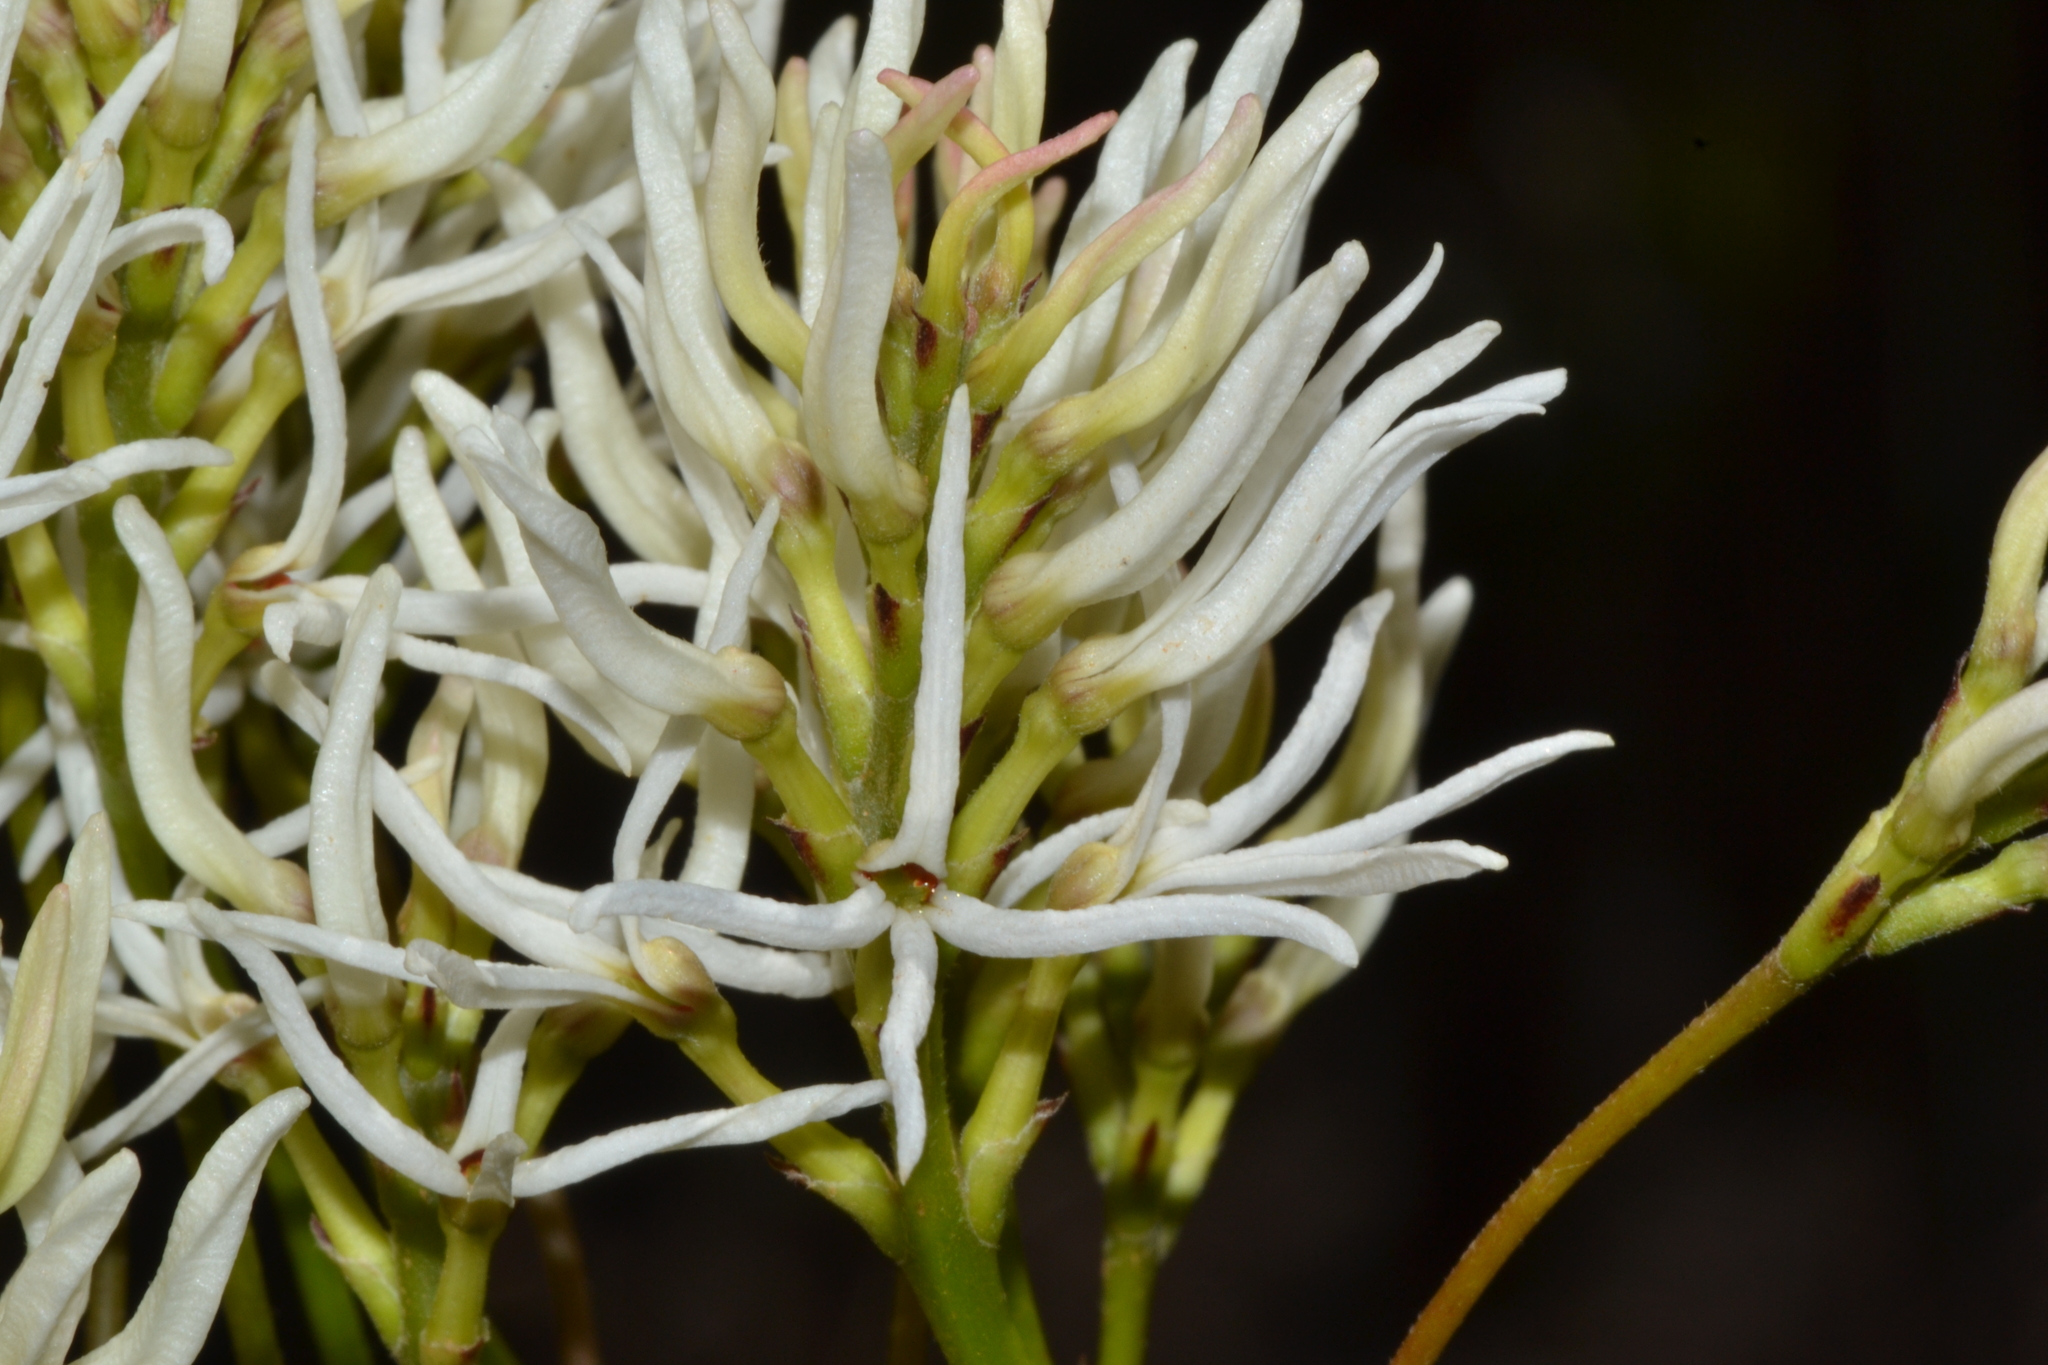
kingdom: Plantae
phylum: Tracheophyta
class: Magnoliopsida
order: Proteales
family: Proteaceae
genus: Conospermum
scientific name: Conospermum teretifolium
